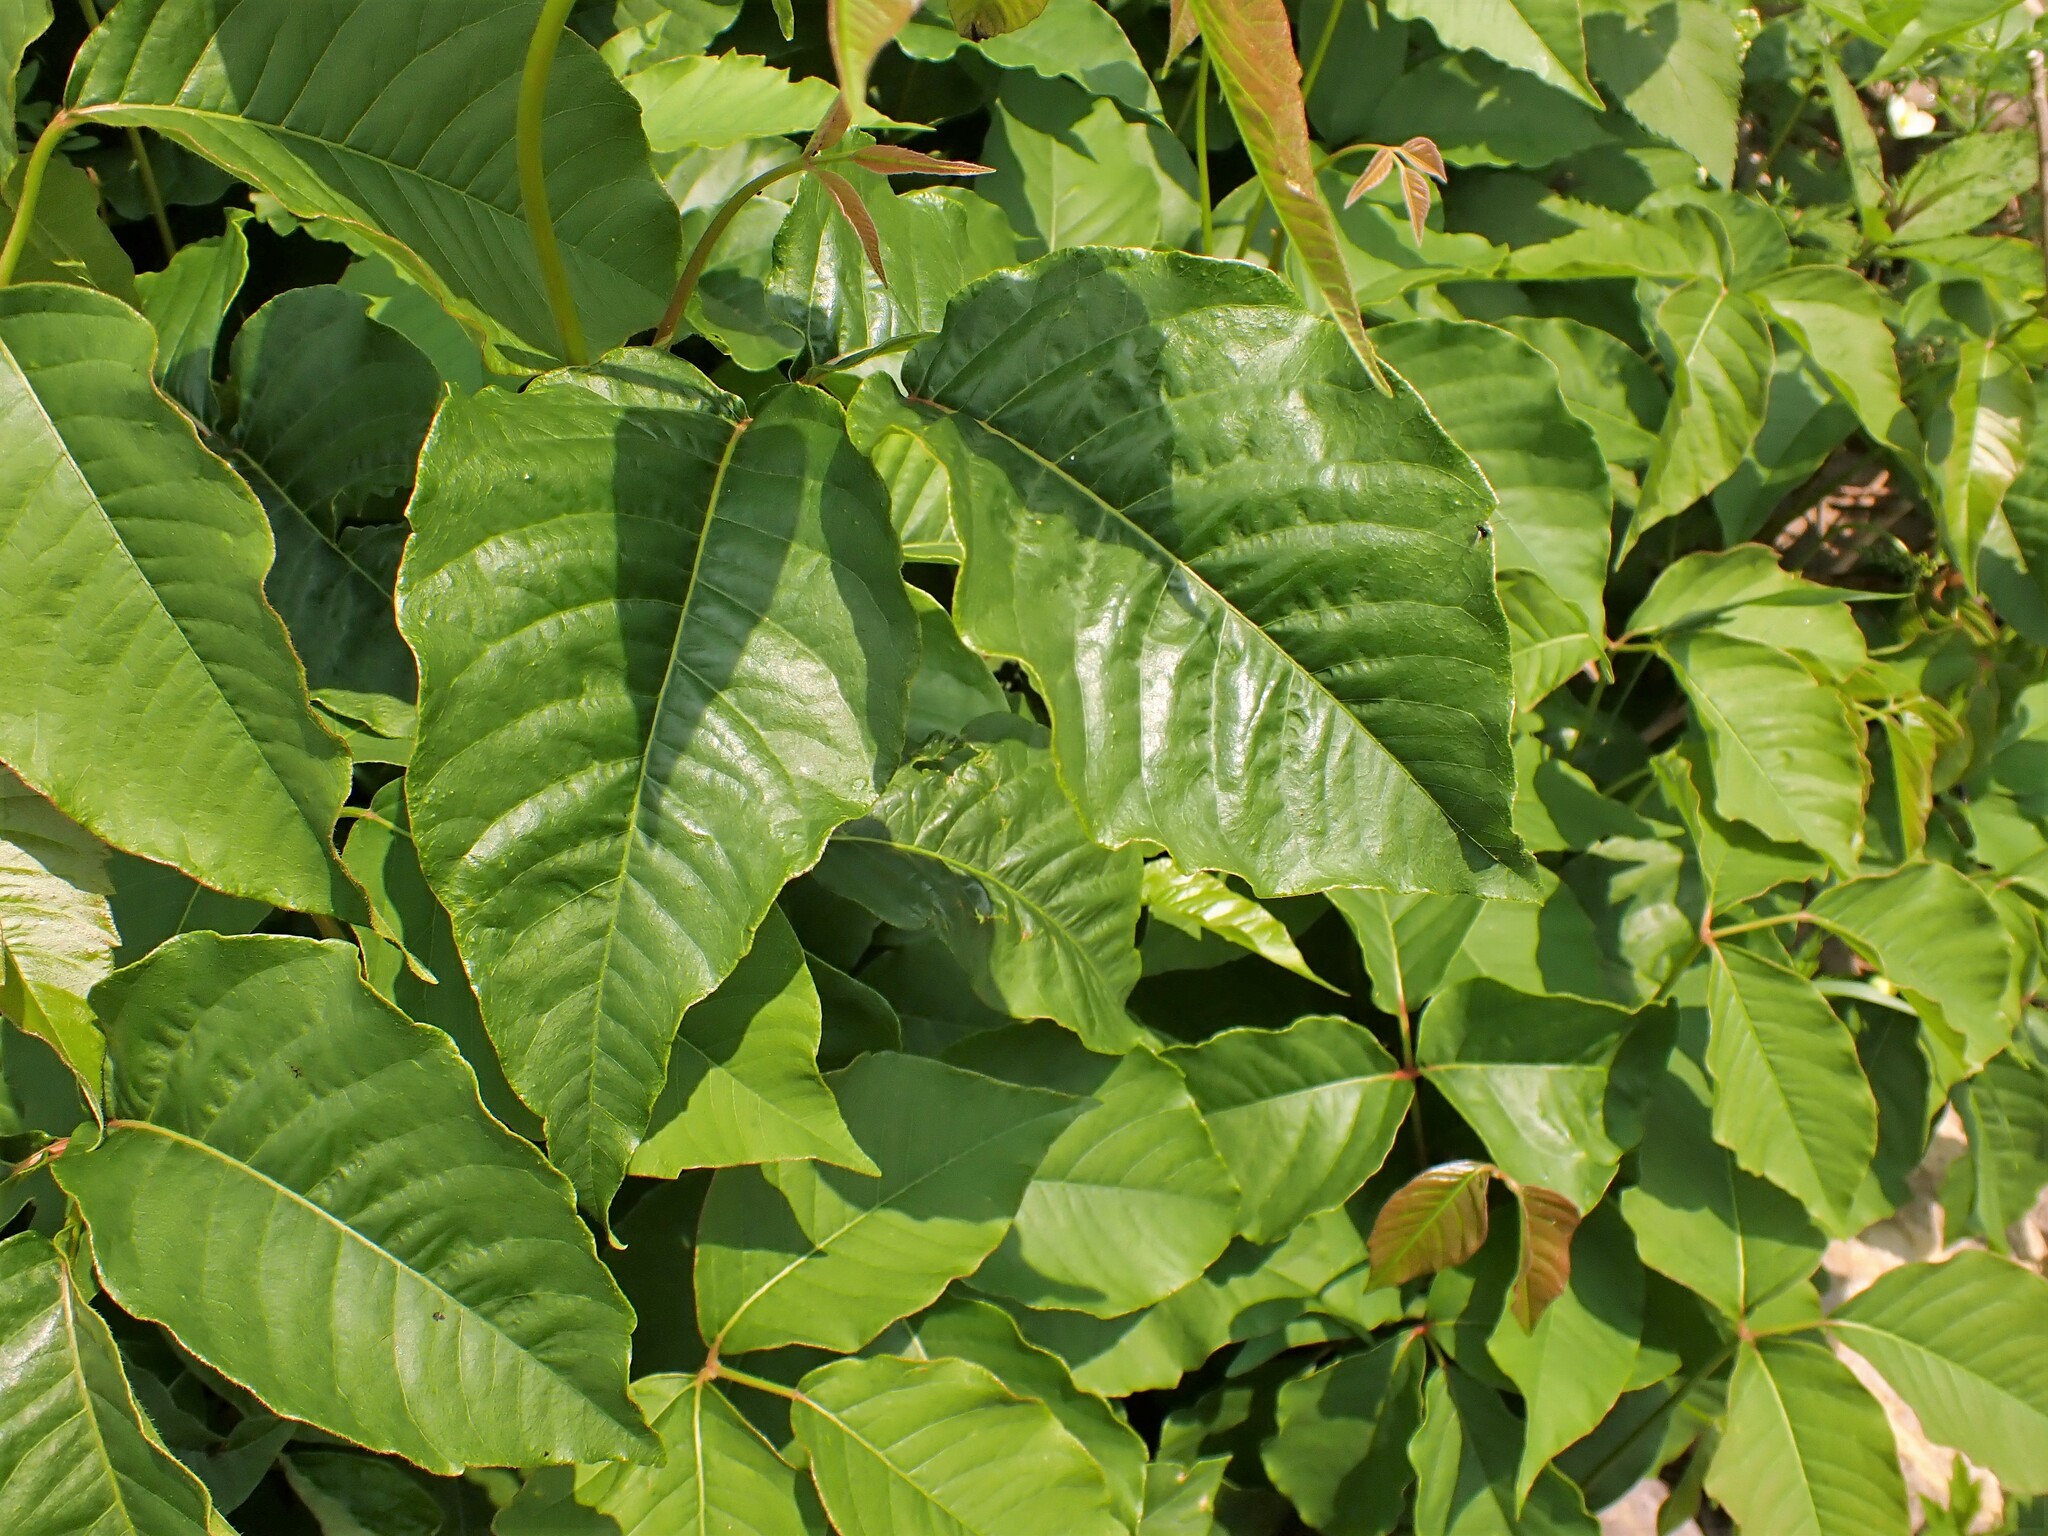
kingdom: Plantae
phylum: Tracheophyta
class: Magnoliopsida
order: Sapindales
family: Anacardiaceae
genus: Toxicodendron
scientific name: Toxicodendron rydbergii
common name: Rydberg's poison-ivy
